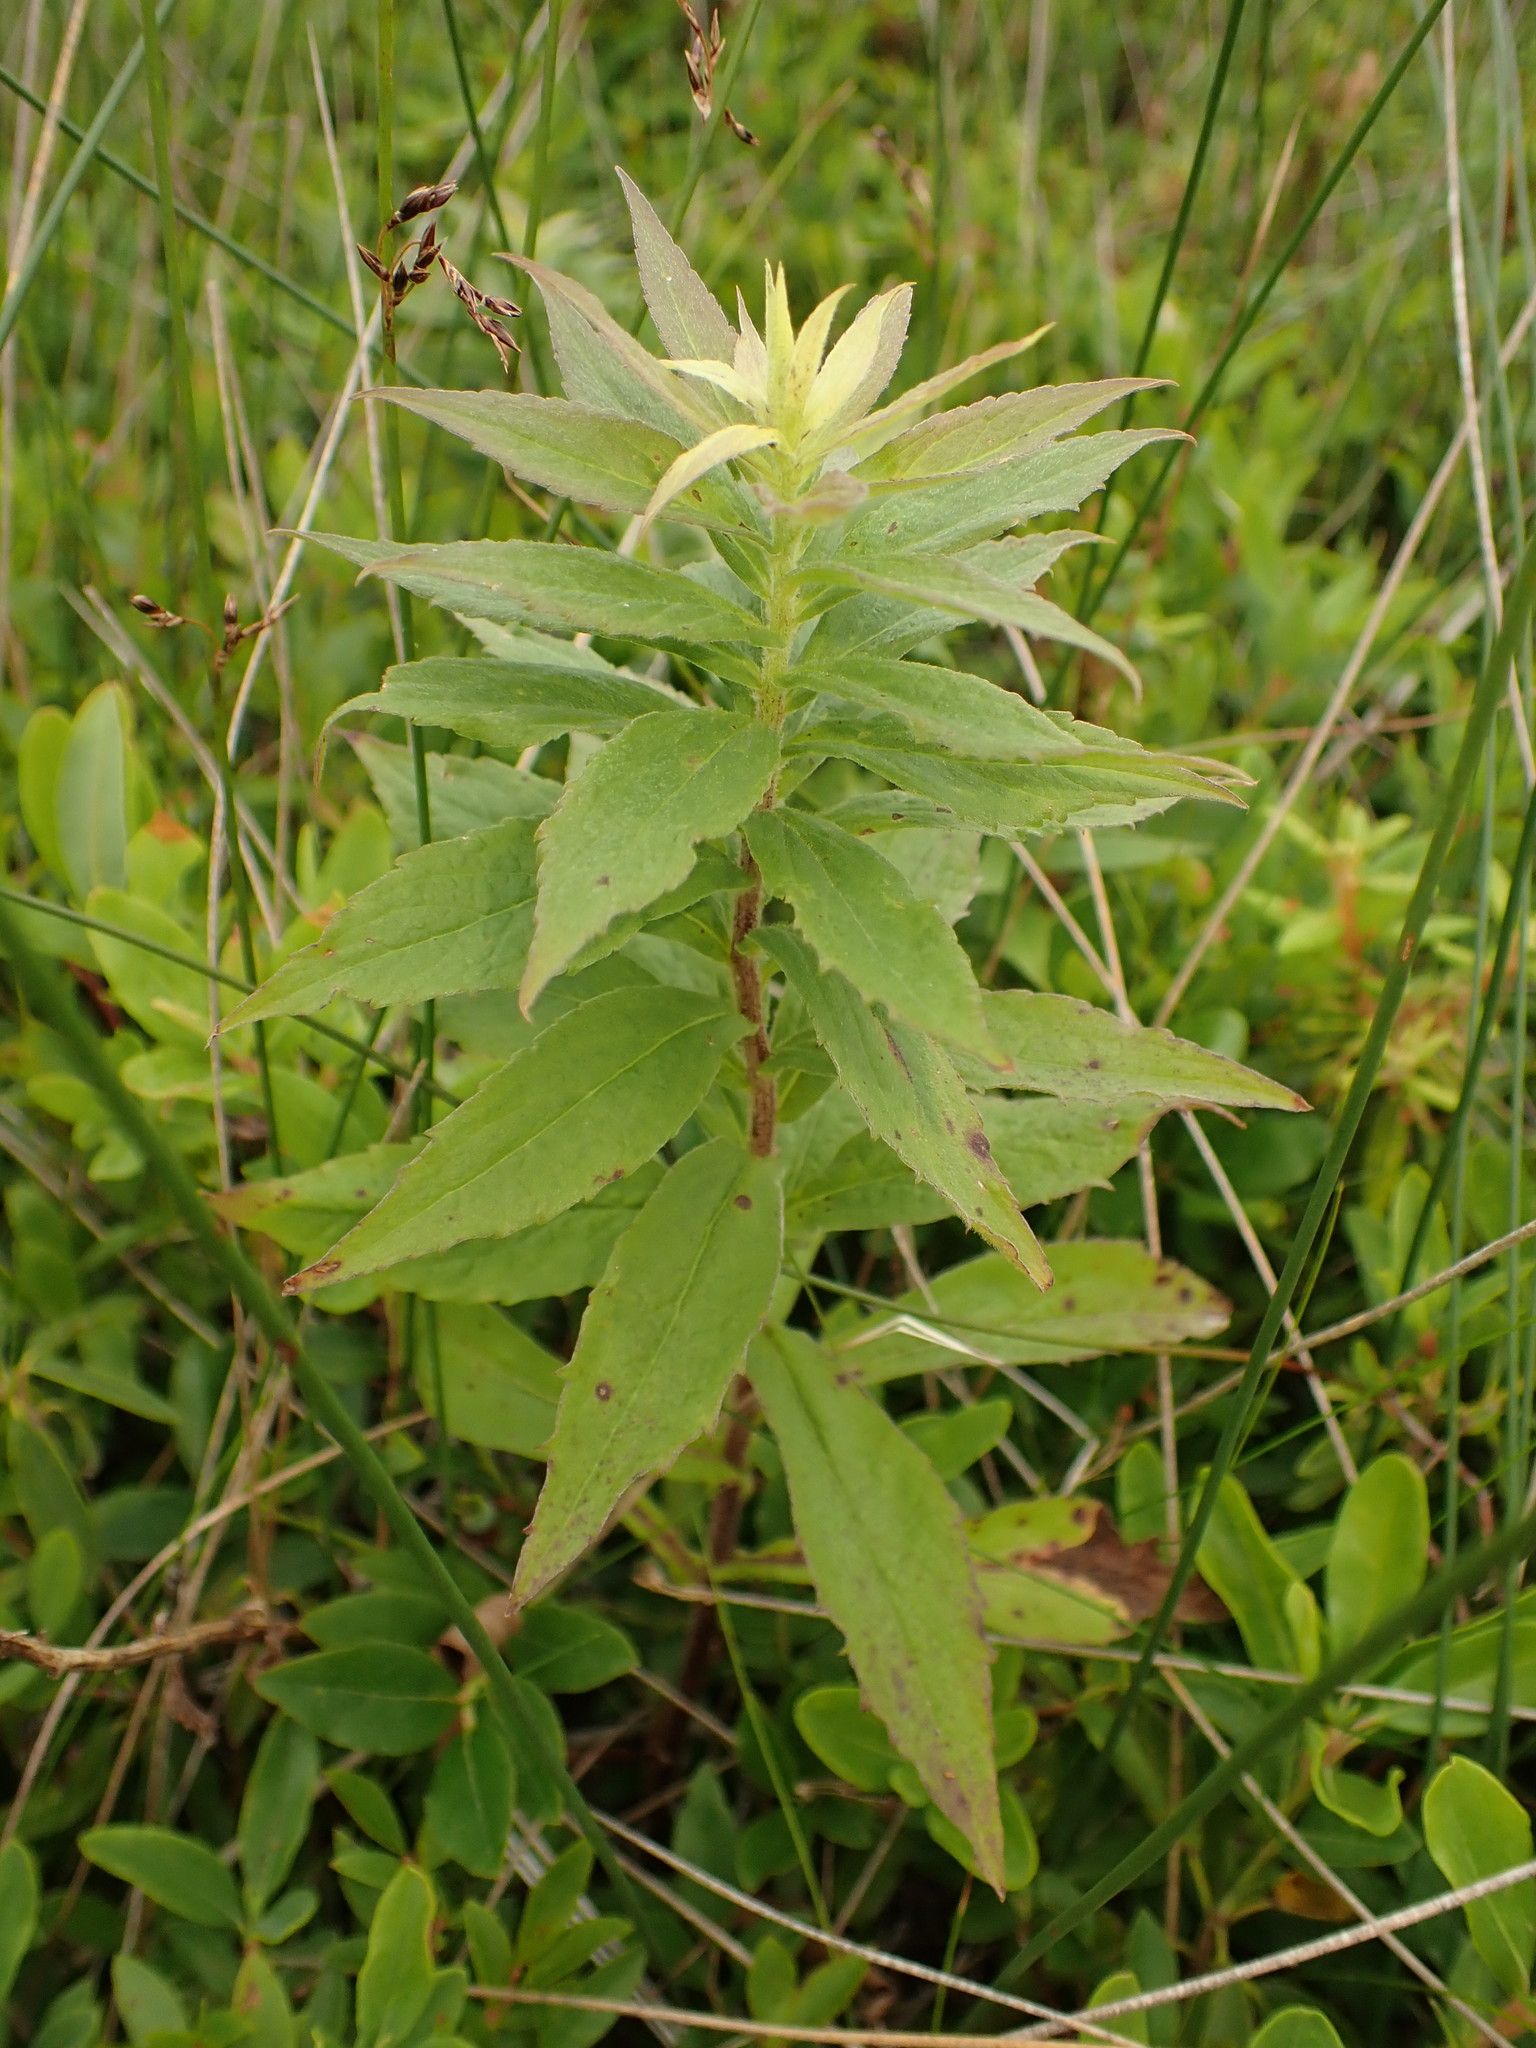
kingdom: Plantae
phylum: Tracheophyta
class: Magnoliopsida
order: Asterales
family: Asteraceae
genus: Solidago
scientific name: Solidago rugosa
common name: Rough-stemmed goldenrod
